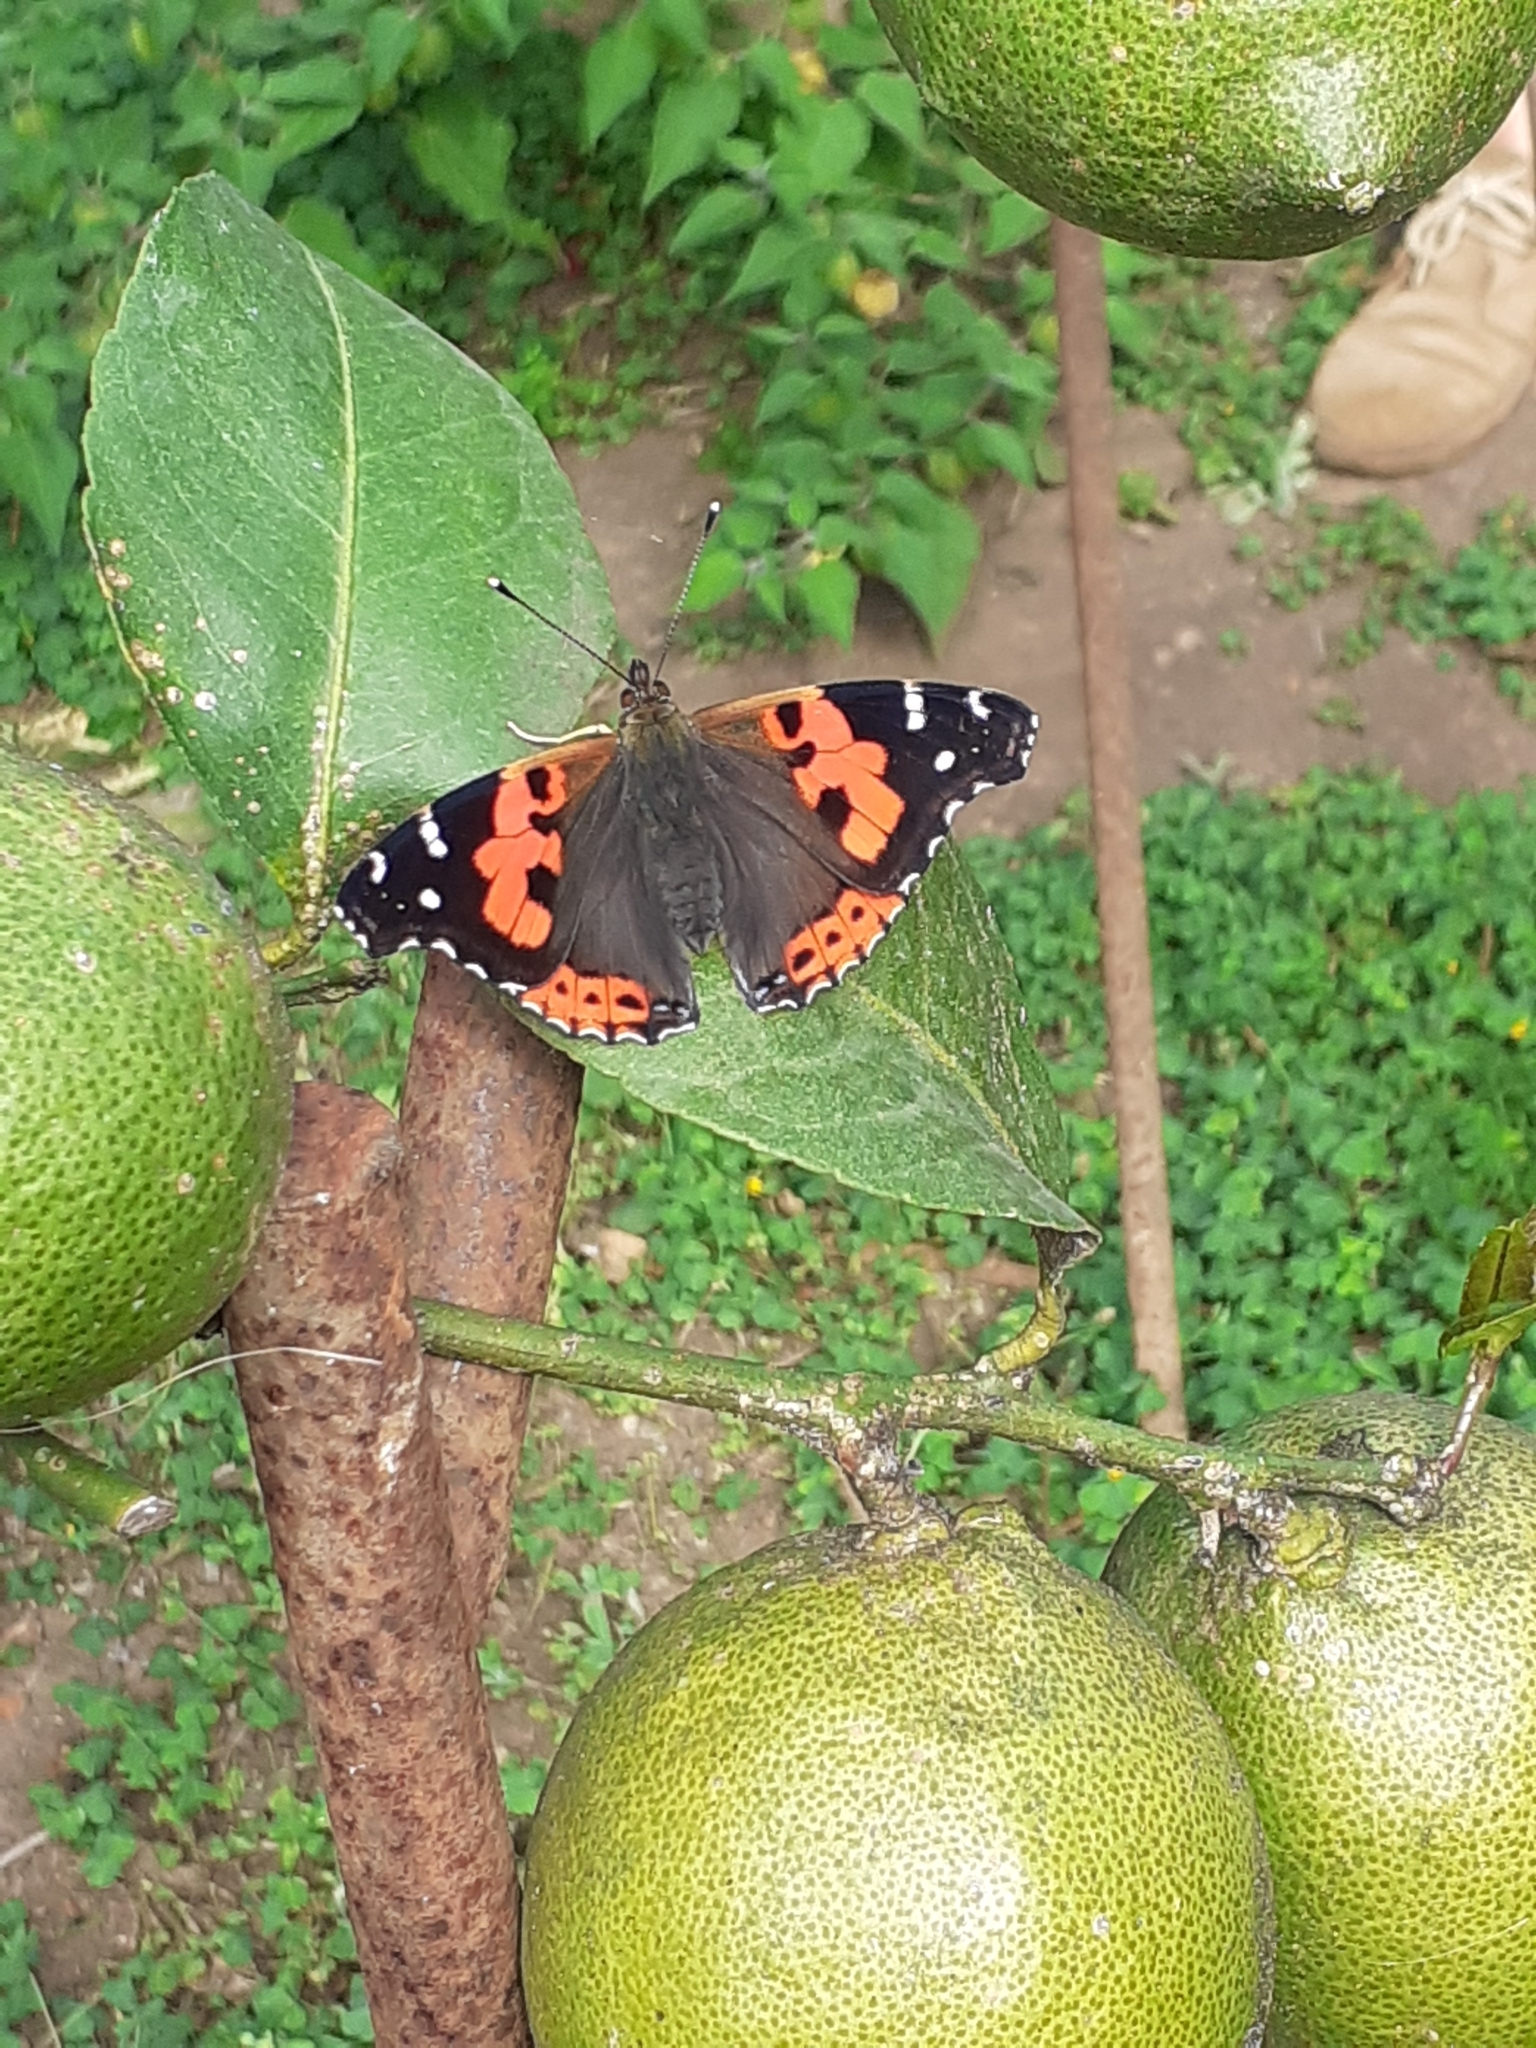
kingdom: Animalia
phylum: Arthropoda
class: Insecta
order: Lepidoptera
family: Nymphalidae
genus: Vanessa
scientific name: Vanessa vulcania
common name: Canary red admiral
